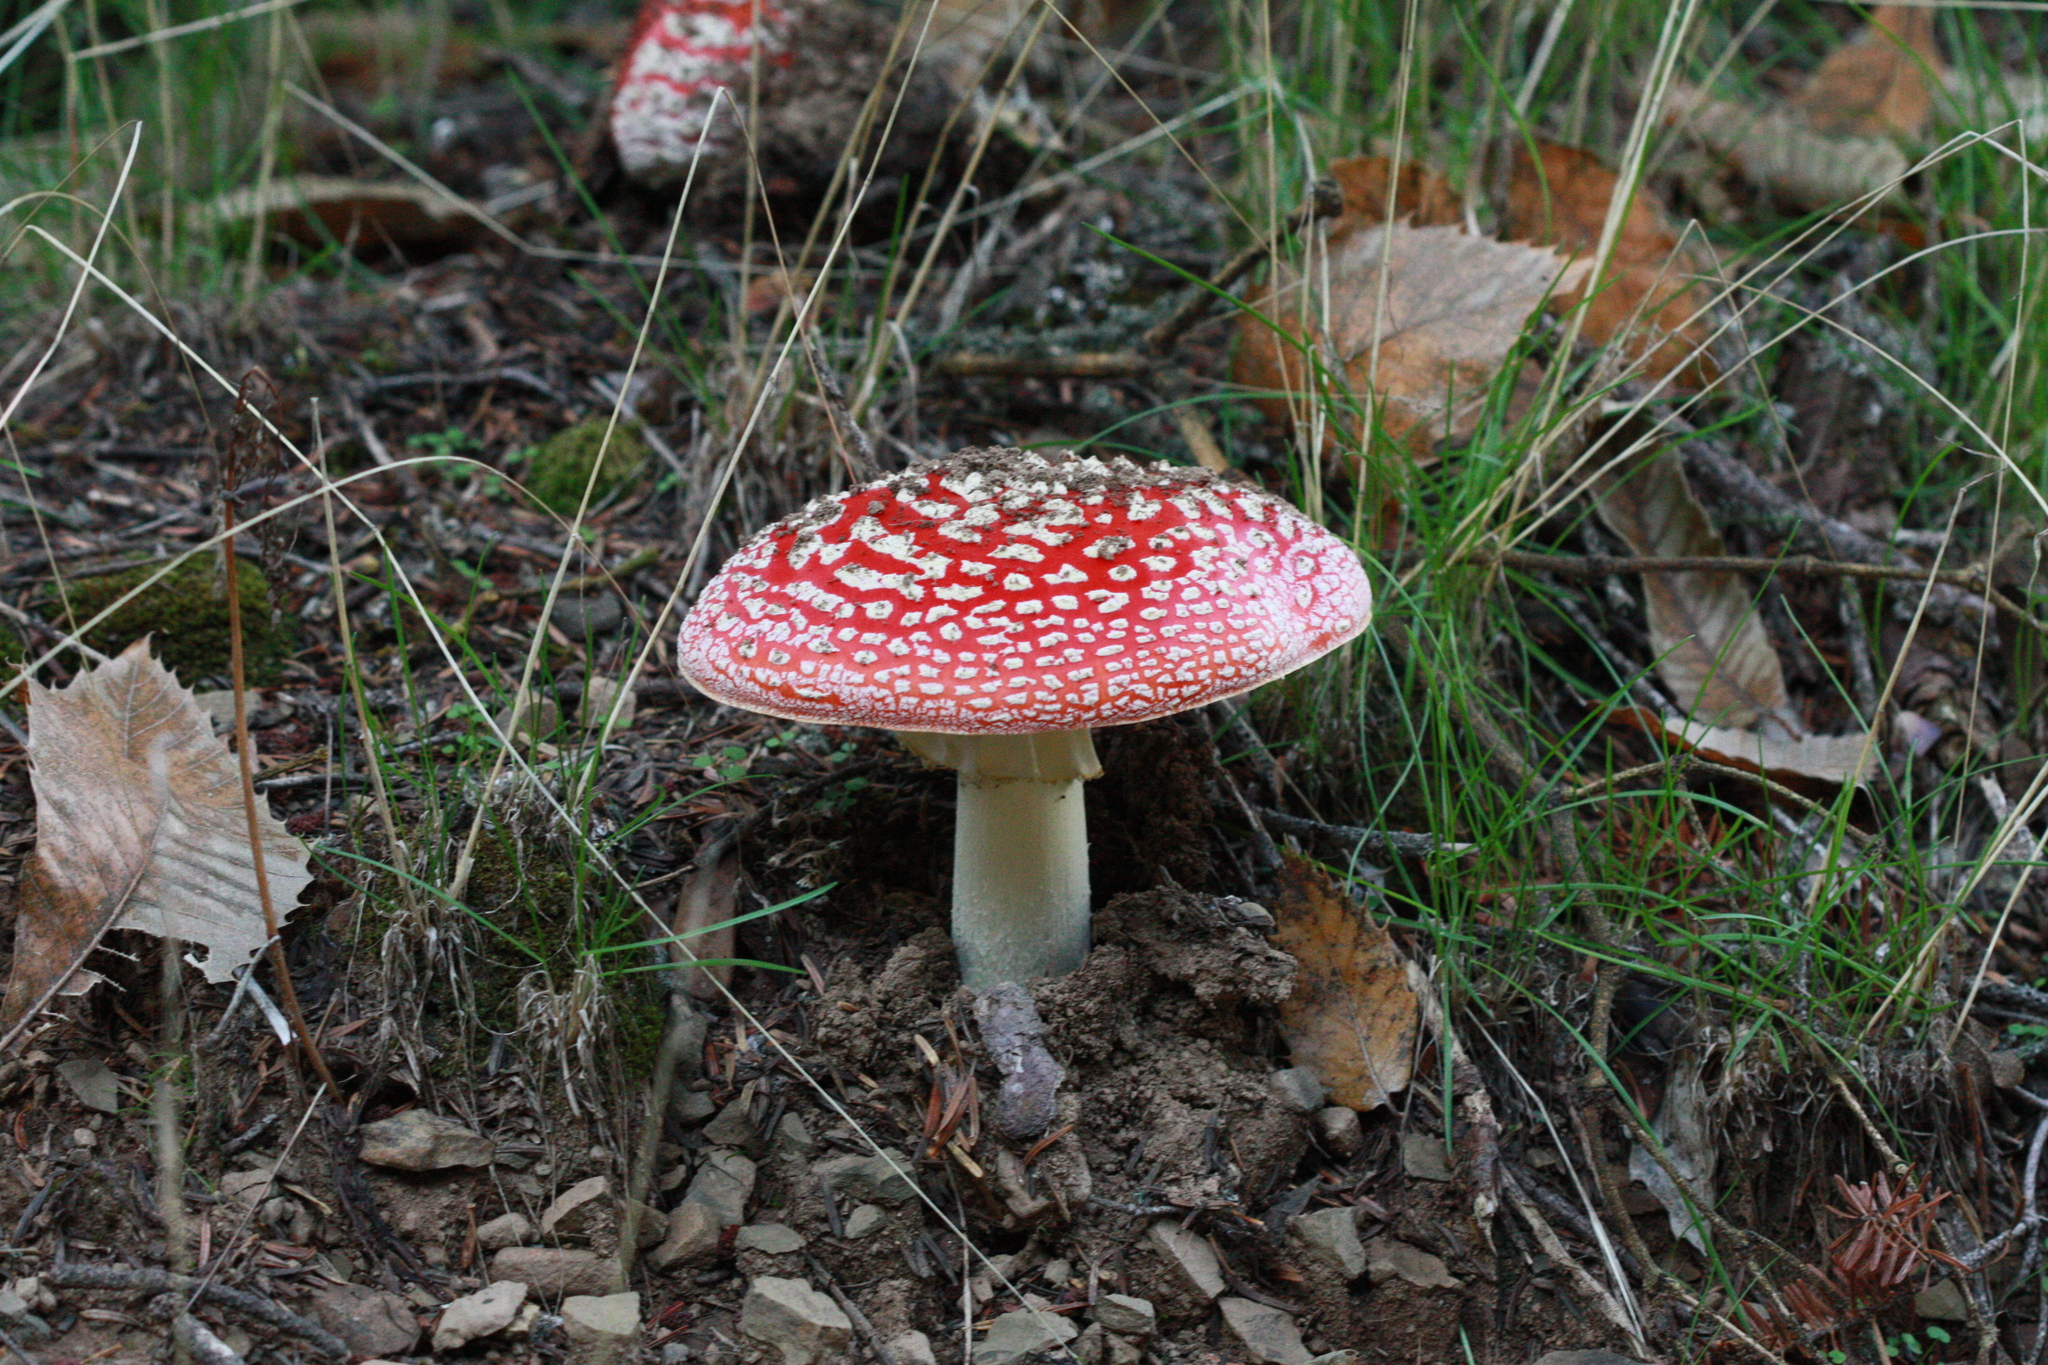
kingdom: Fungi
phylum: Basidiomycota
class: Agaricomycetes
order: Agaricales
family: Amanitaceae
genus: Amanita
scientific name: Amanita muscaria
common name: Fly agaric
